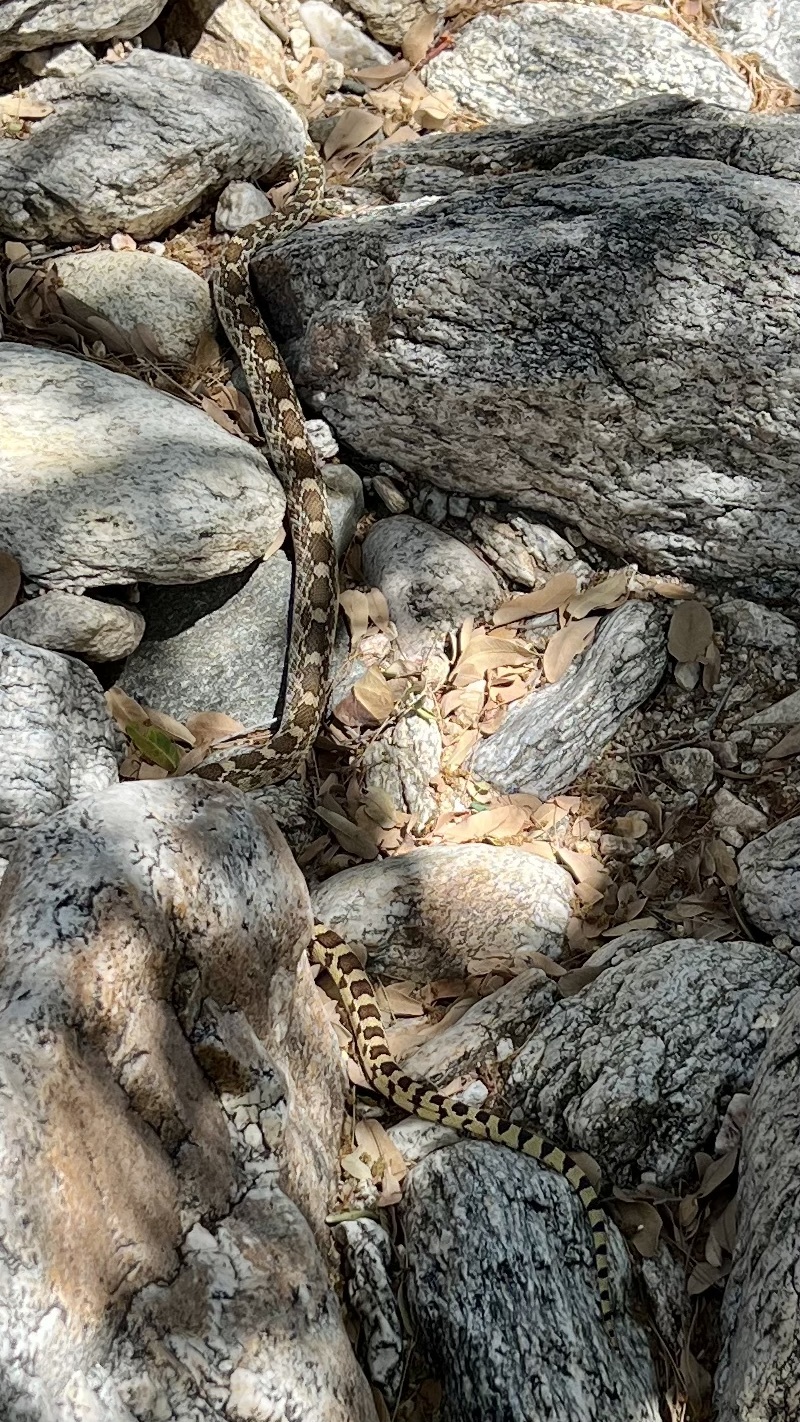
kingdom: Animalia
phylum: Chordata
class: Squamata
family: Colubridae
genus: Pituophis
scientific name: Pituophis catenifer
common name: Gopher snake
